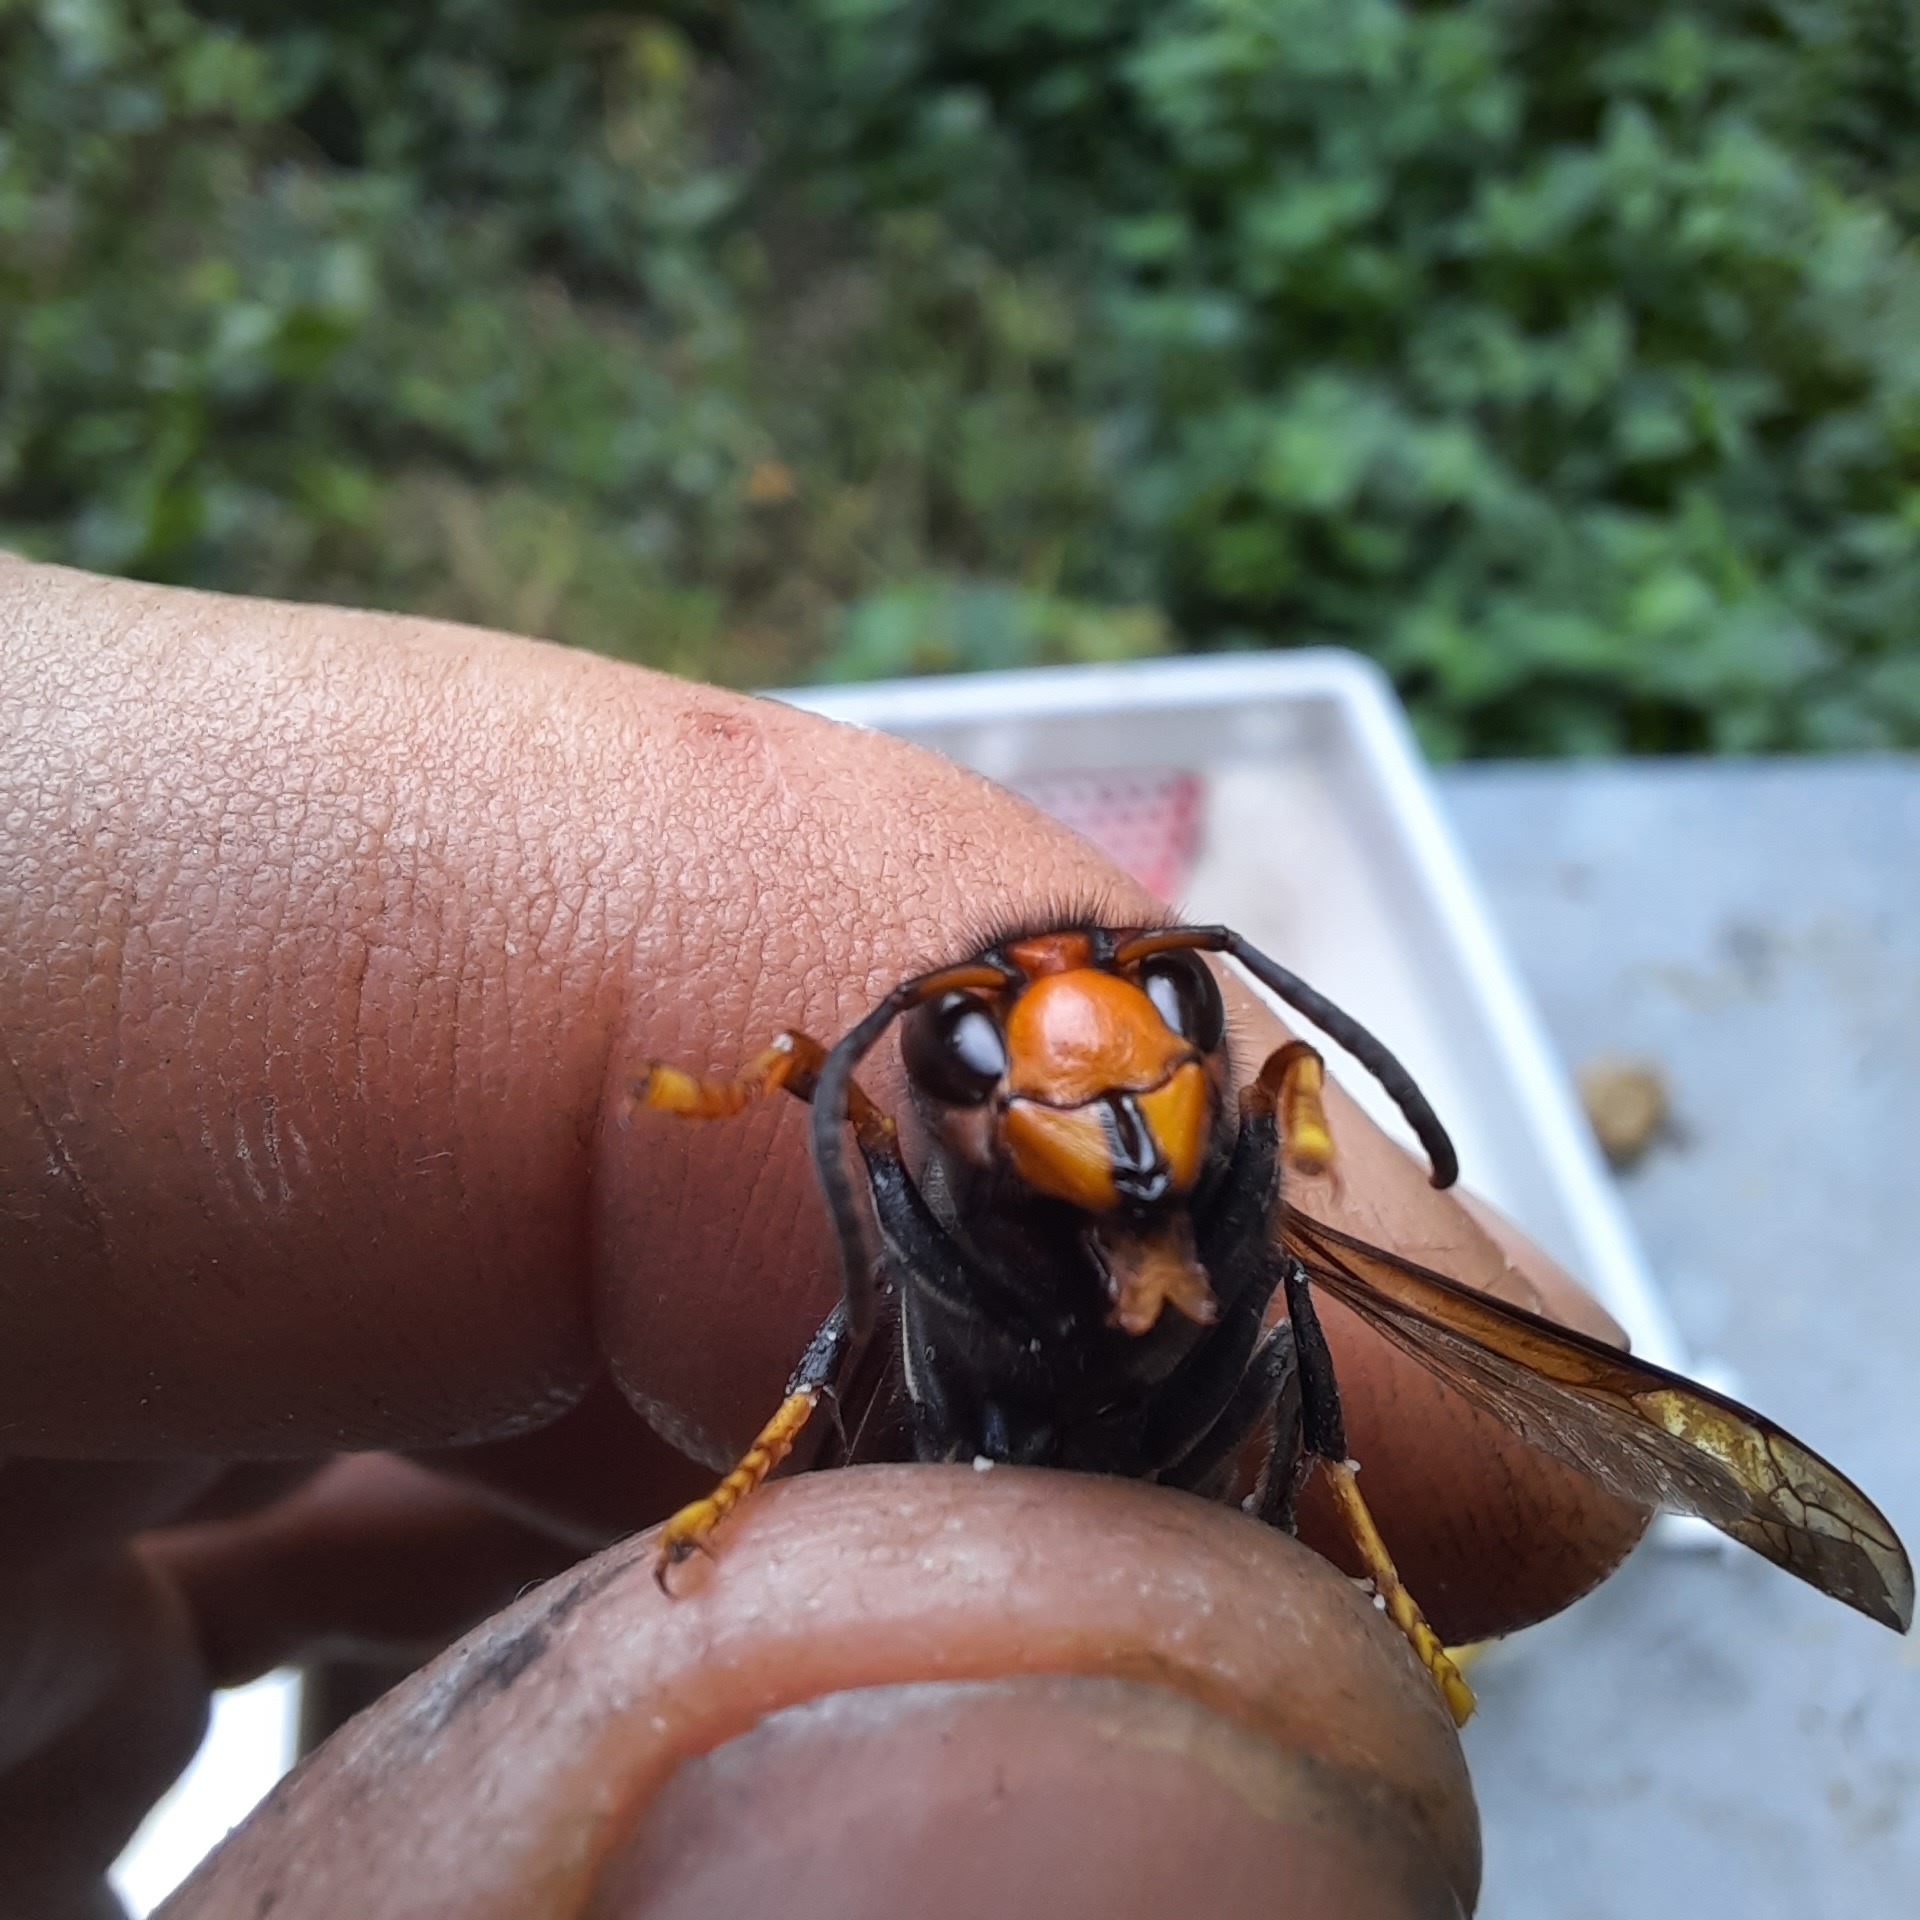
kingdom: Animalia
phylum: Arthropoda
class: Insecta
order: Hymenoptera
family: Vespidae
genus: Vespa
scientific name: Vespa velutina
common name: Asian hornet
